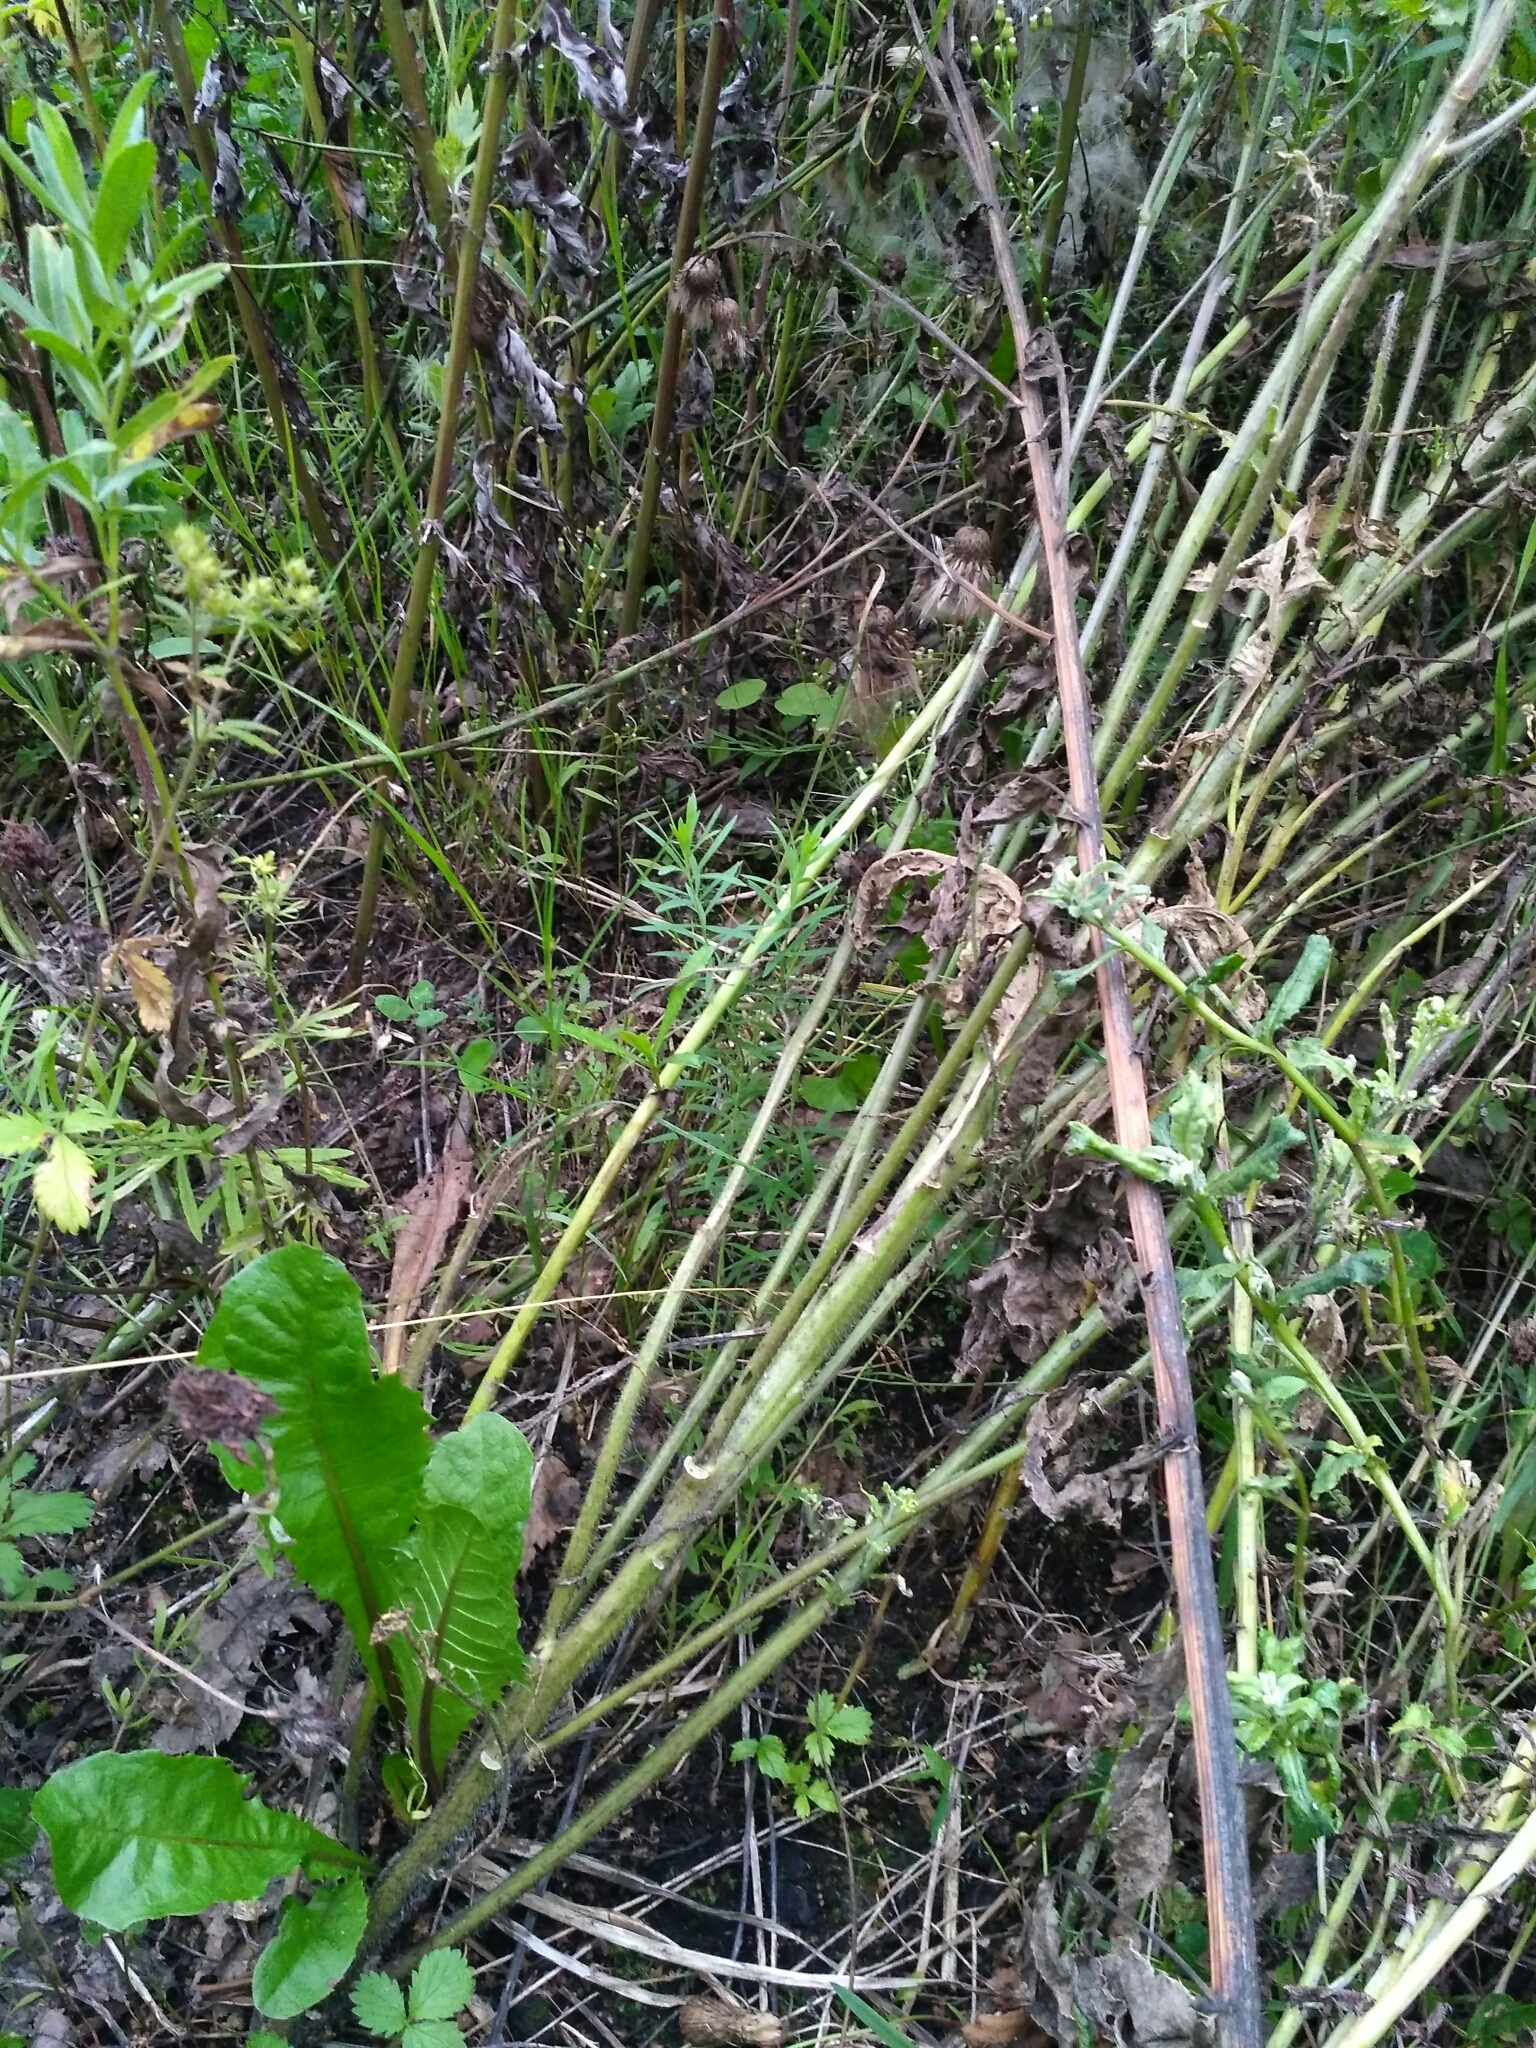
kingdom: Plantae
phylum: Tracheophyta
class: Magnoliopsida
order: Brassicales
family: Brassicaceae
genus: Sisymbrium
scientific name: Sisymbrium loeselii
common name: False london-rocket
